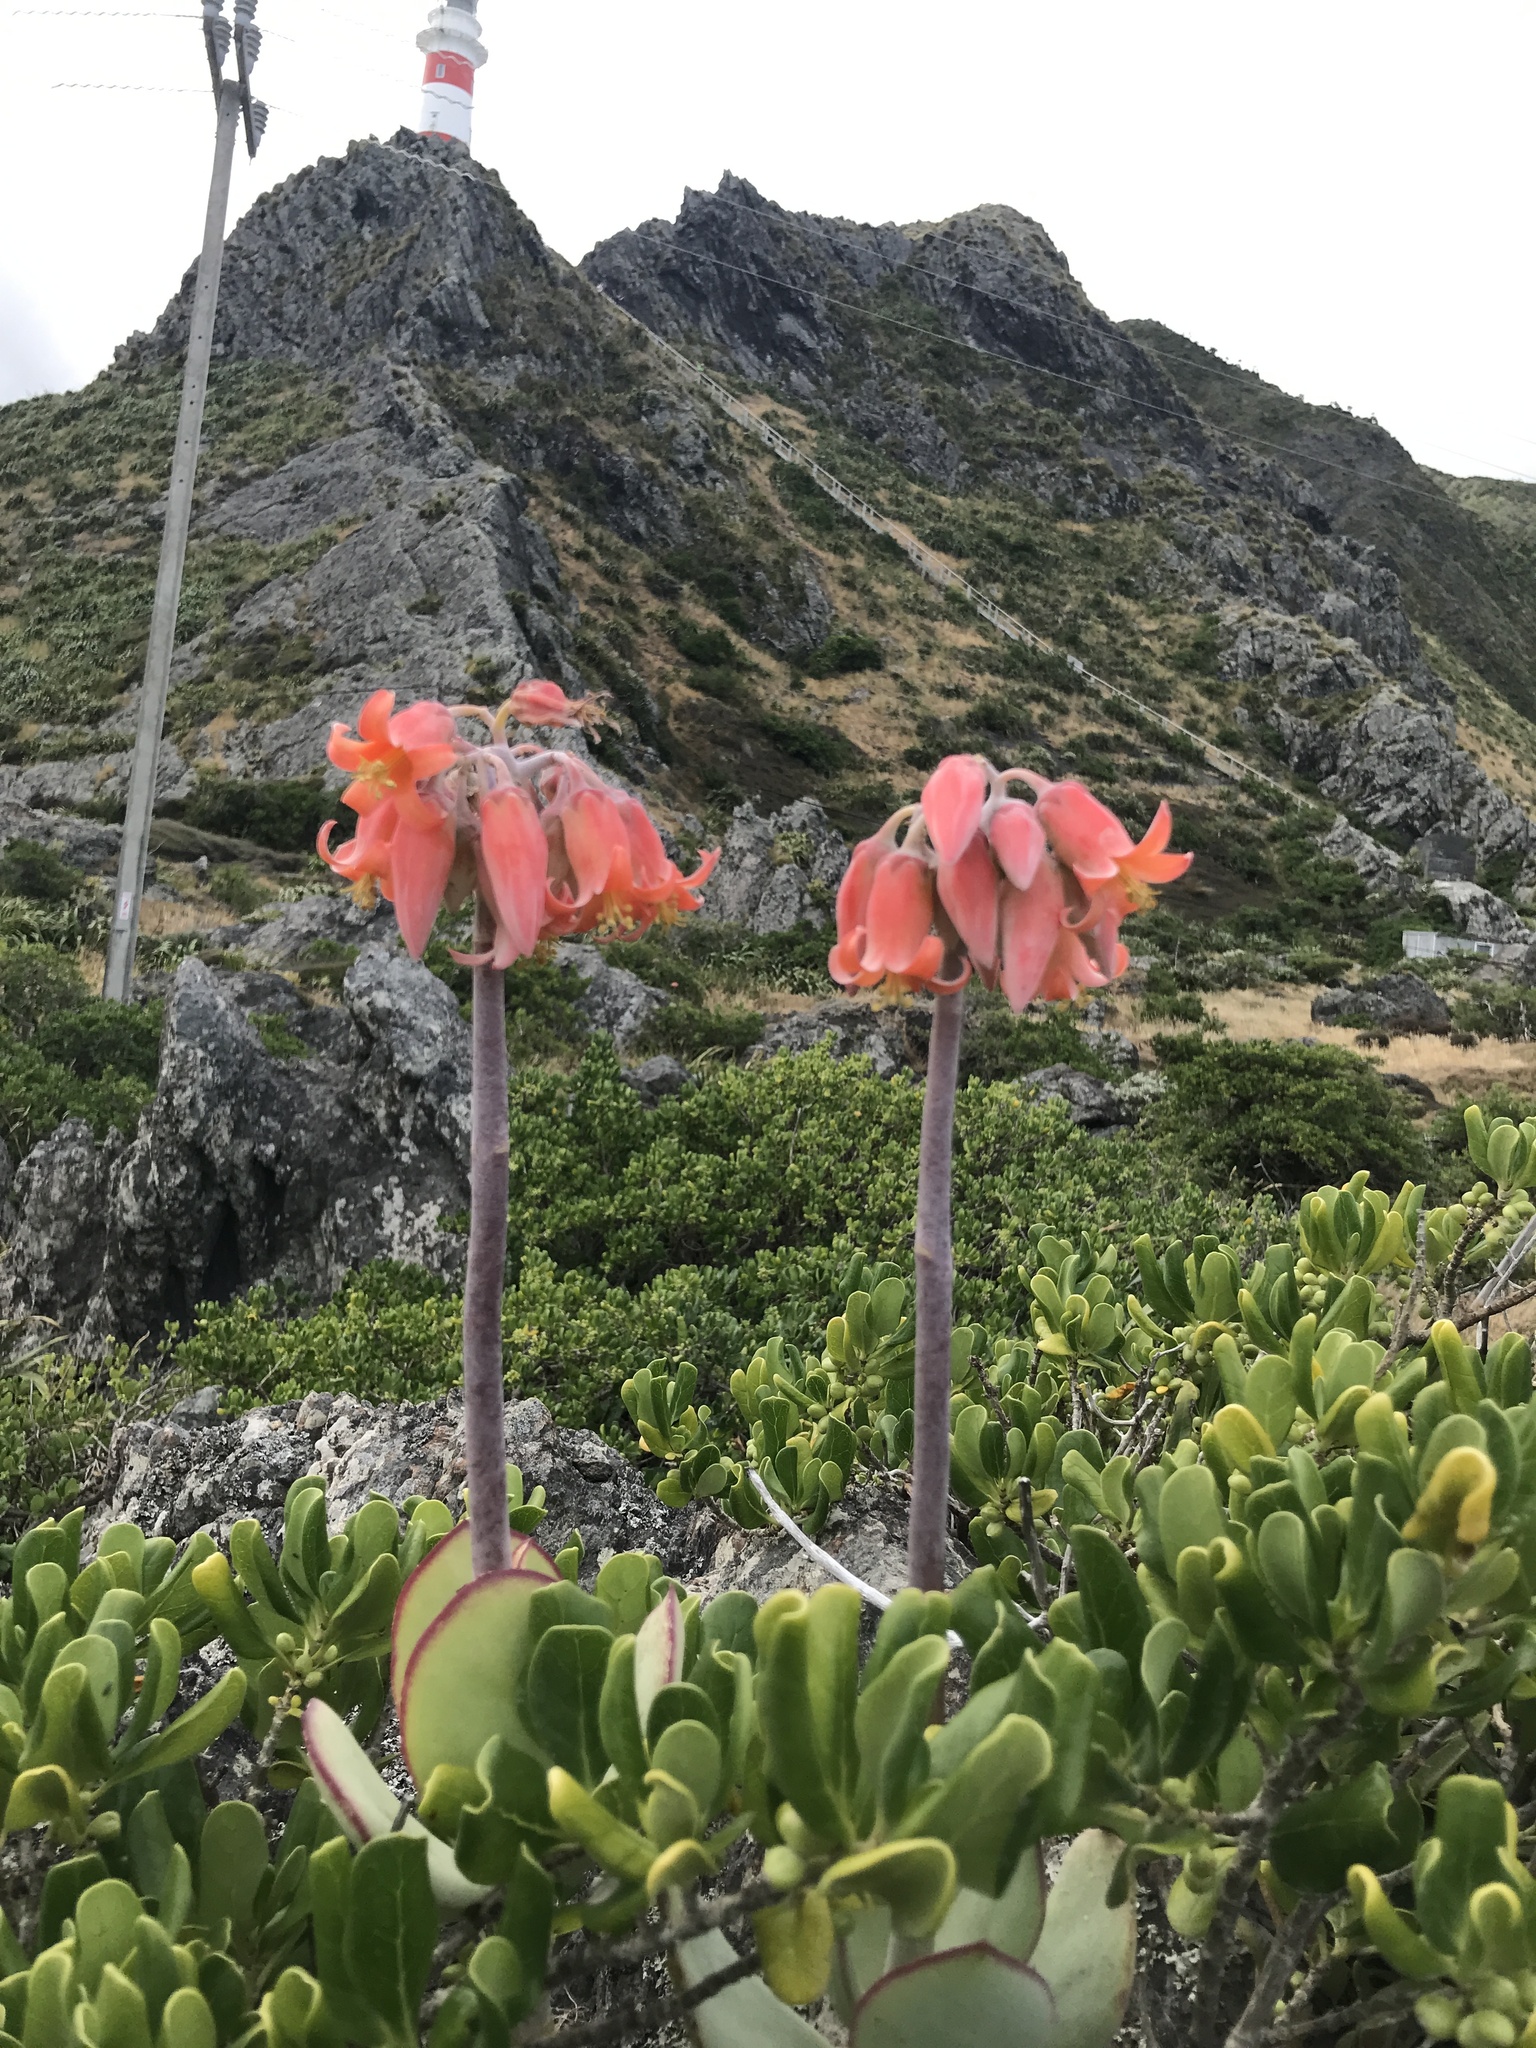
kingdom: Plantae
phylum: Tracheophyta
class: Magnoliopsida
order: Saxifragales
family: Crassulaceae
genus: Cotyledon
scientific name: Cotyledon orbiculata
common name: Pig's ear
